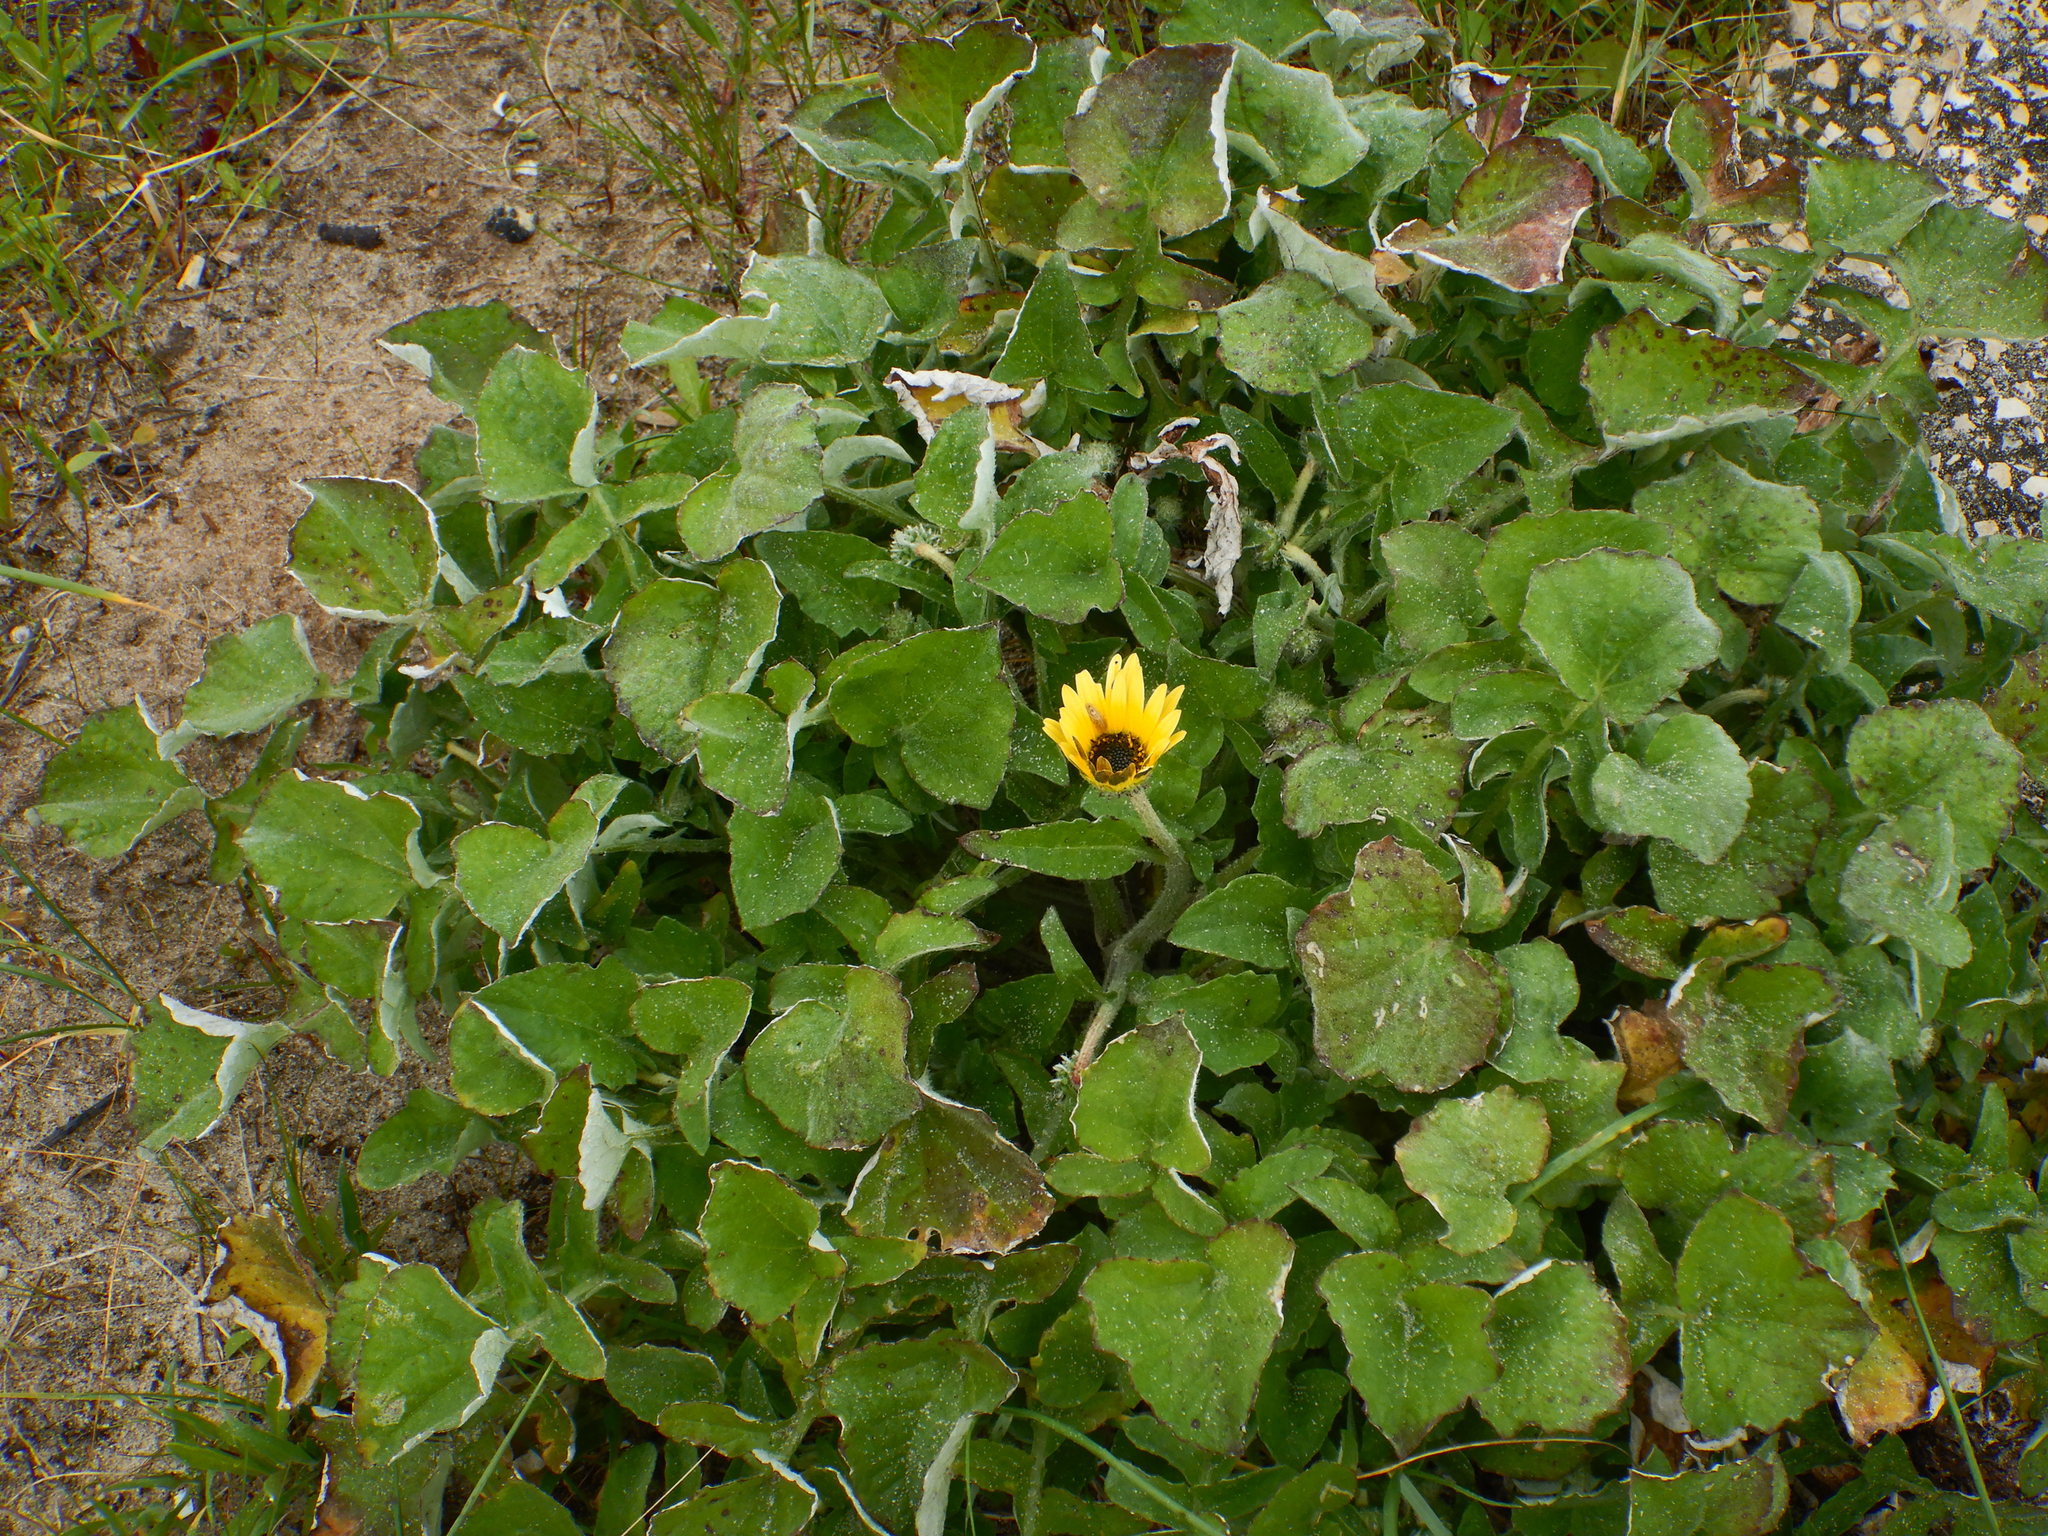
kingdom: Plantae
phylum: Tracheophyta
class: Magnoliopsida
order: Asterales
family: Asteraceae
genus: Arctotheca
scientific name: Arctotheca calendula
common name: Capeweed
